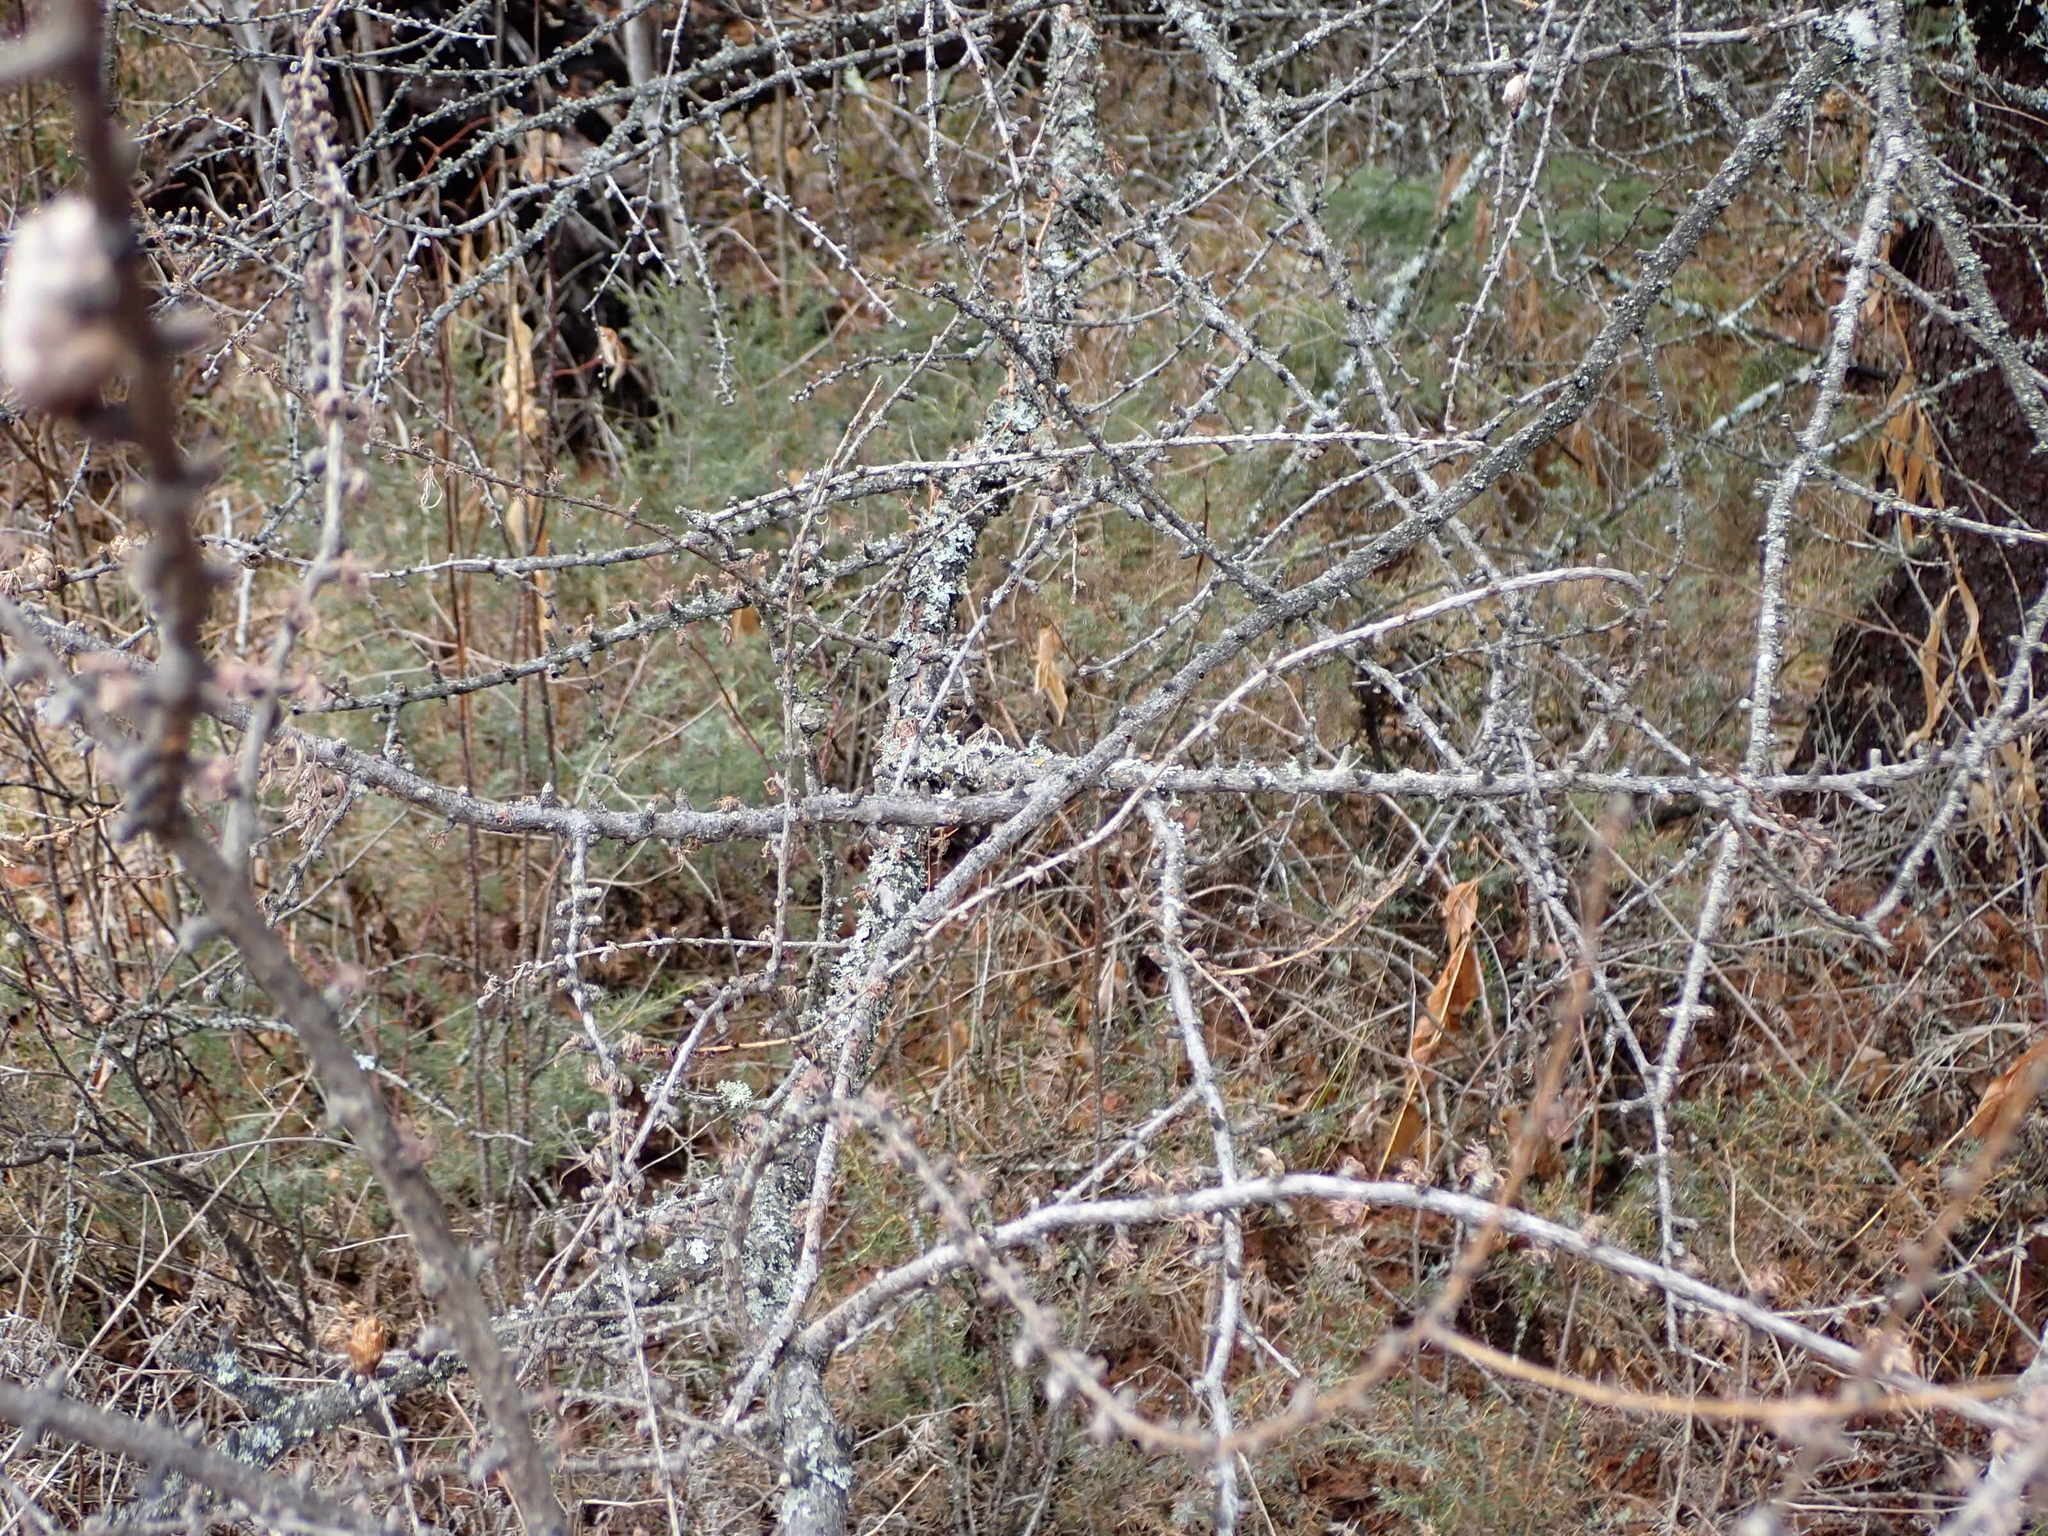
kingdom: Plantae
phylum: Tracheophyta
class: Pinopsida
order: Pinales
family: Pinaceae
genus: Larix
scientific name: Larix laricina
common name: American larch
